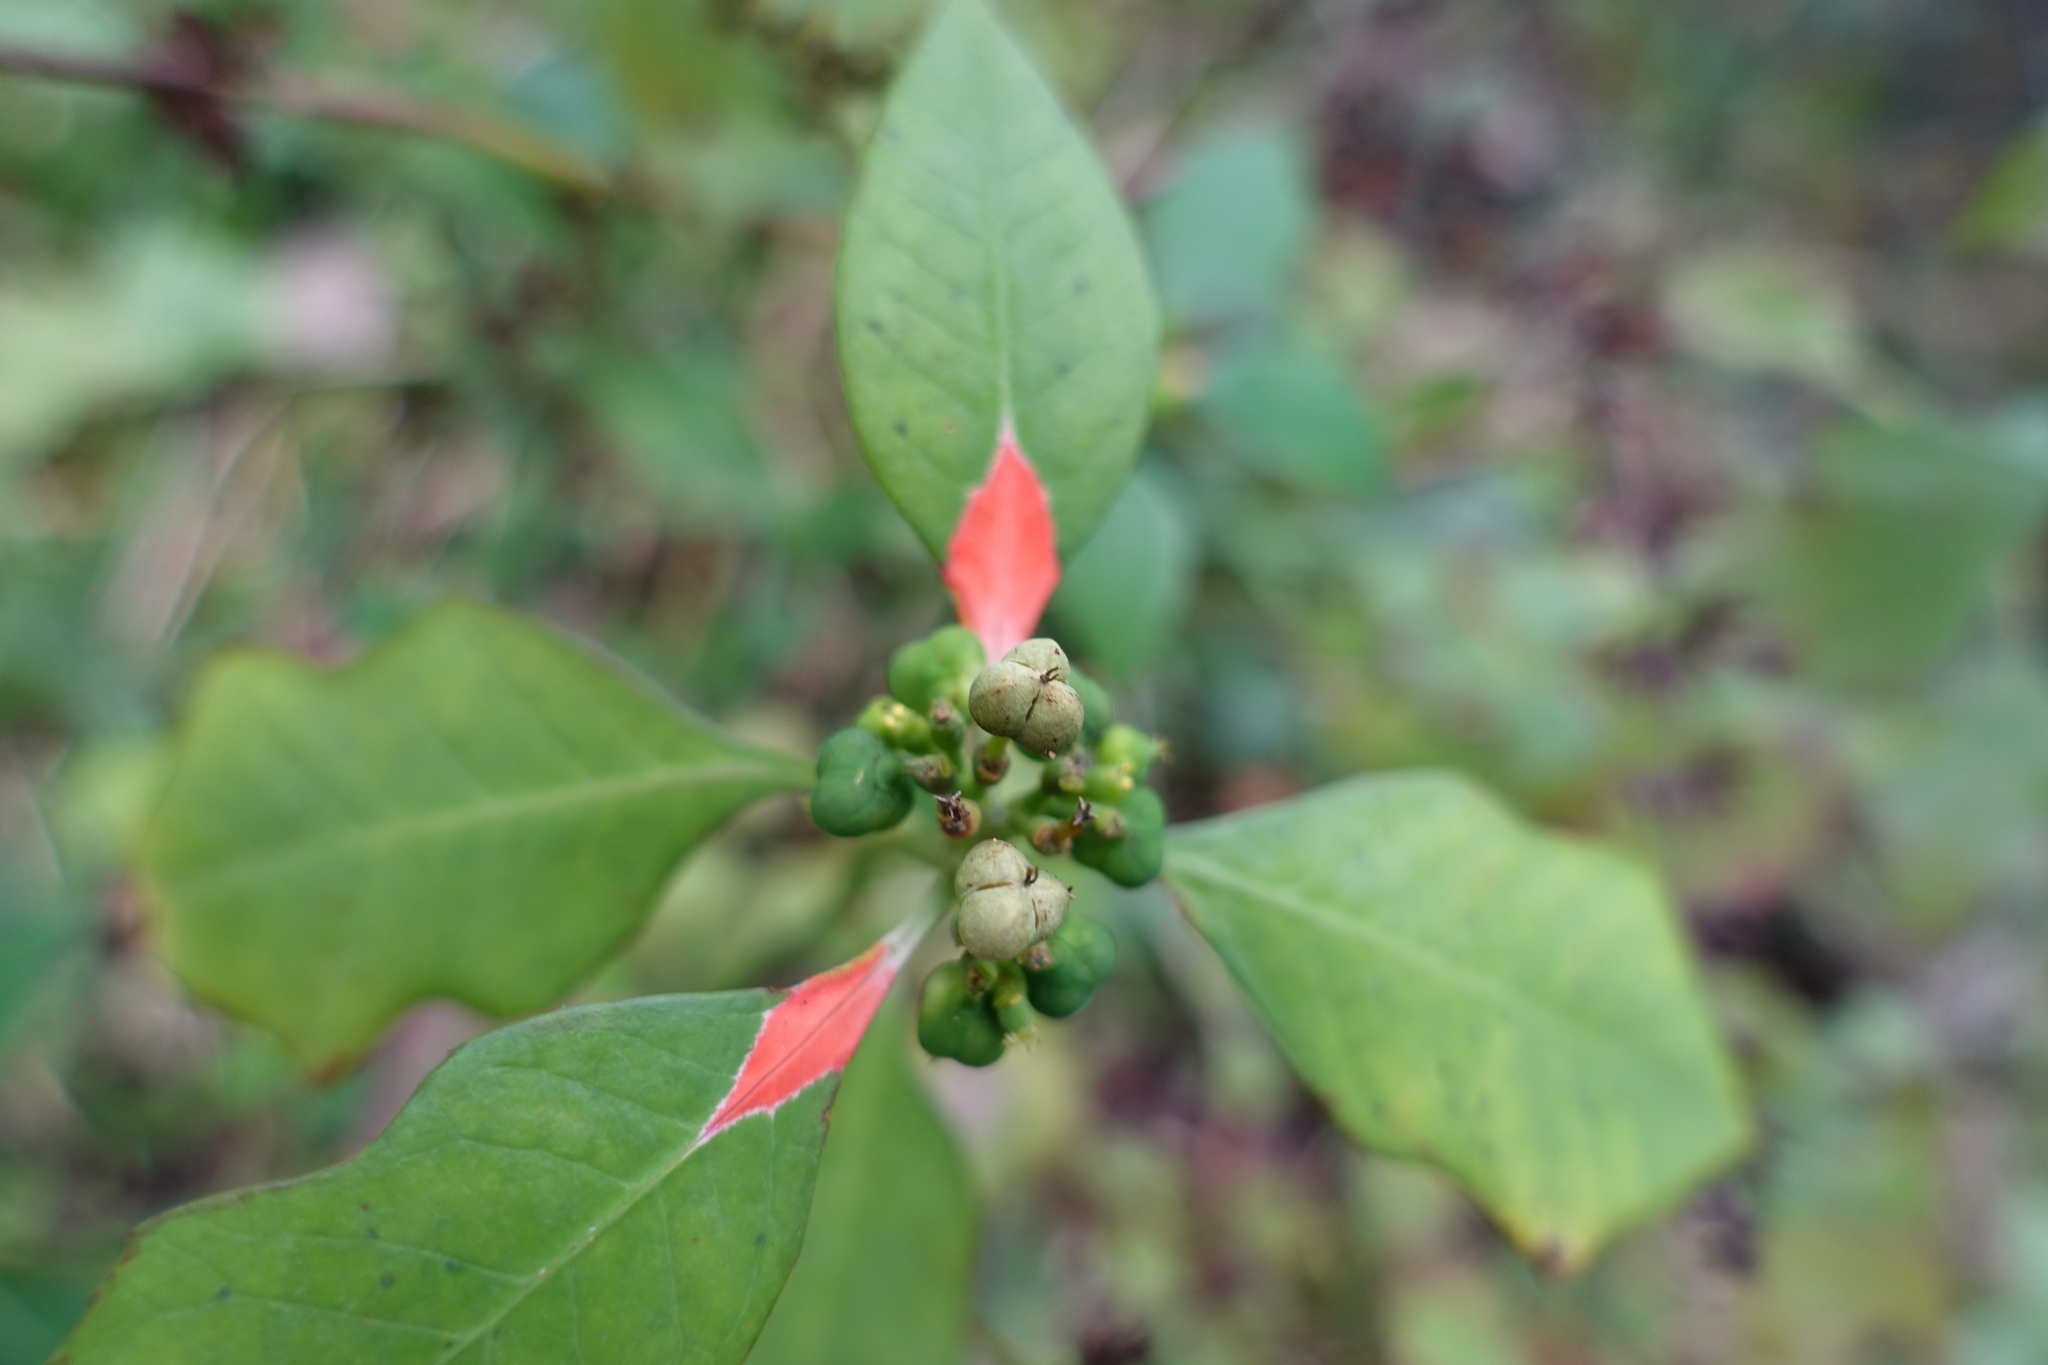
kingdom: Plantae
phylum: Tracheophyta
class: Magnoliopsida
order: Malpighiales
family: Euphorbiaceae
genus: Euphorbia
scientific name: Euphorbia heterophylla
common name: Mexican fireplant
